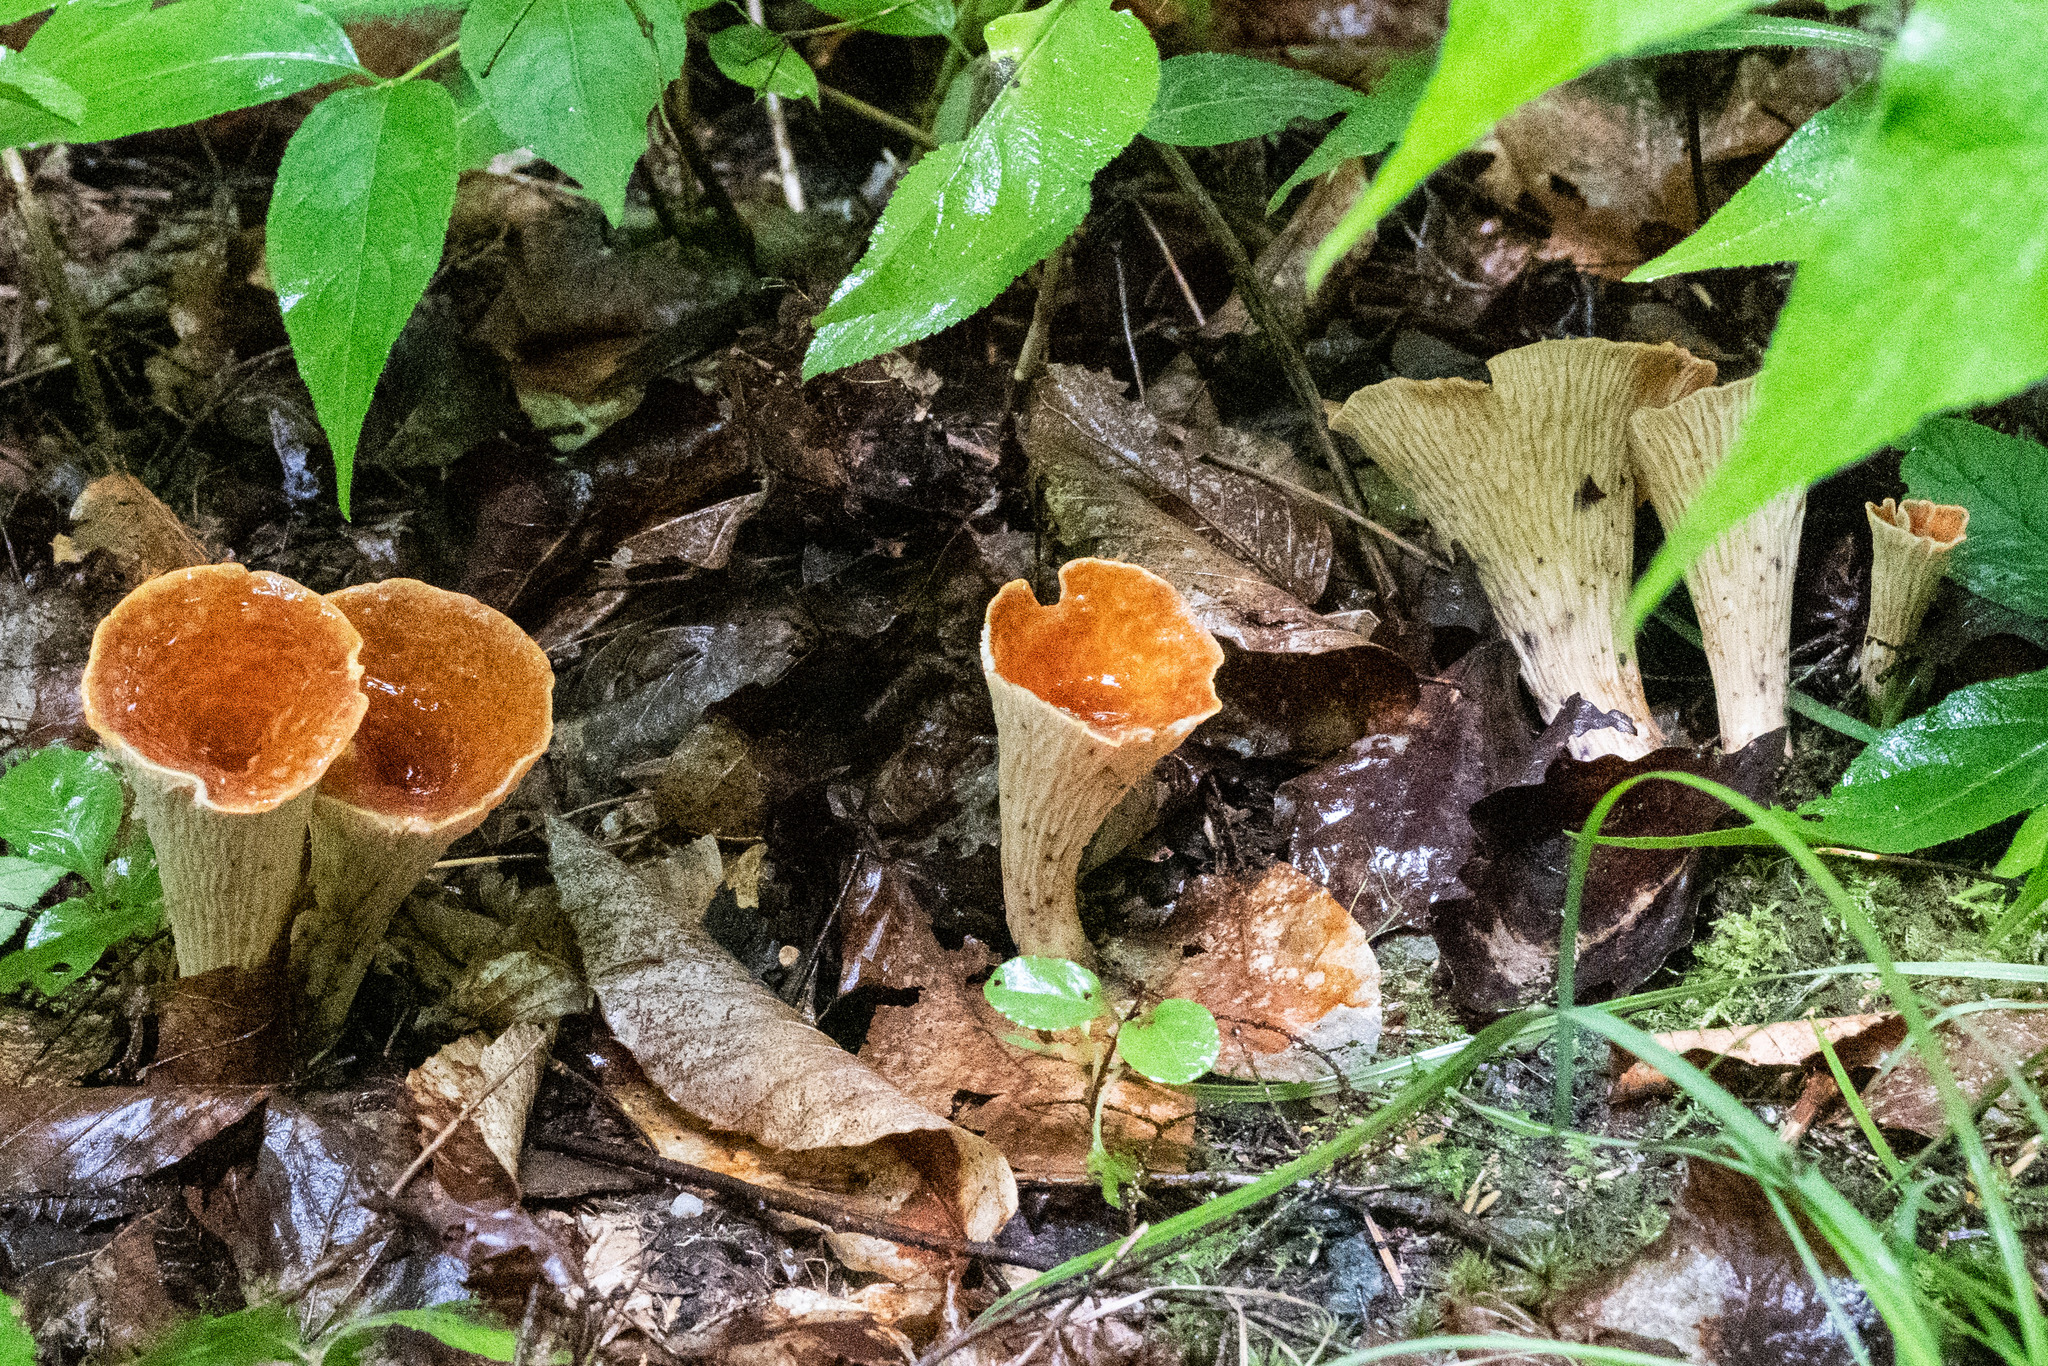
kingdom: Fungi
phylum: Basidiomycota
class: Agaricomycetes
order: Gomphales
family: Gomphaceae
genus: Turbinellus
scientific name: Turbinellus floccosus
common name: Scaly chanterelle
